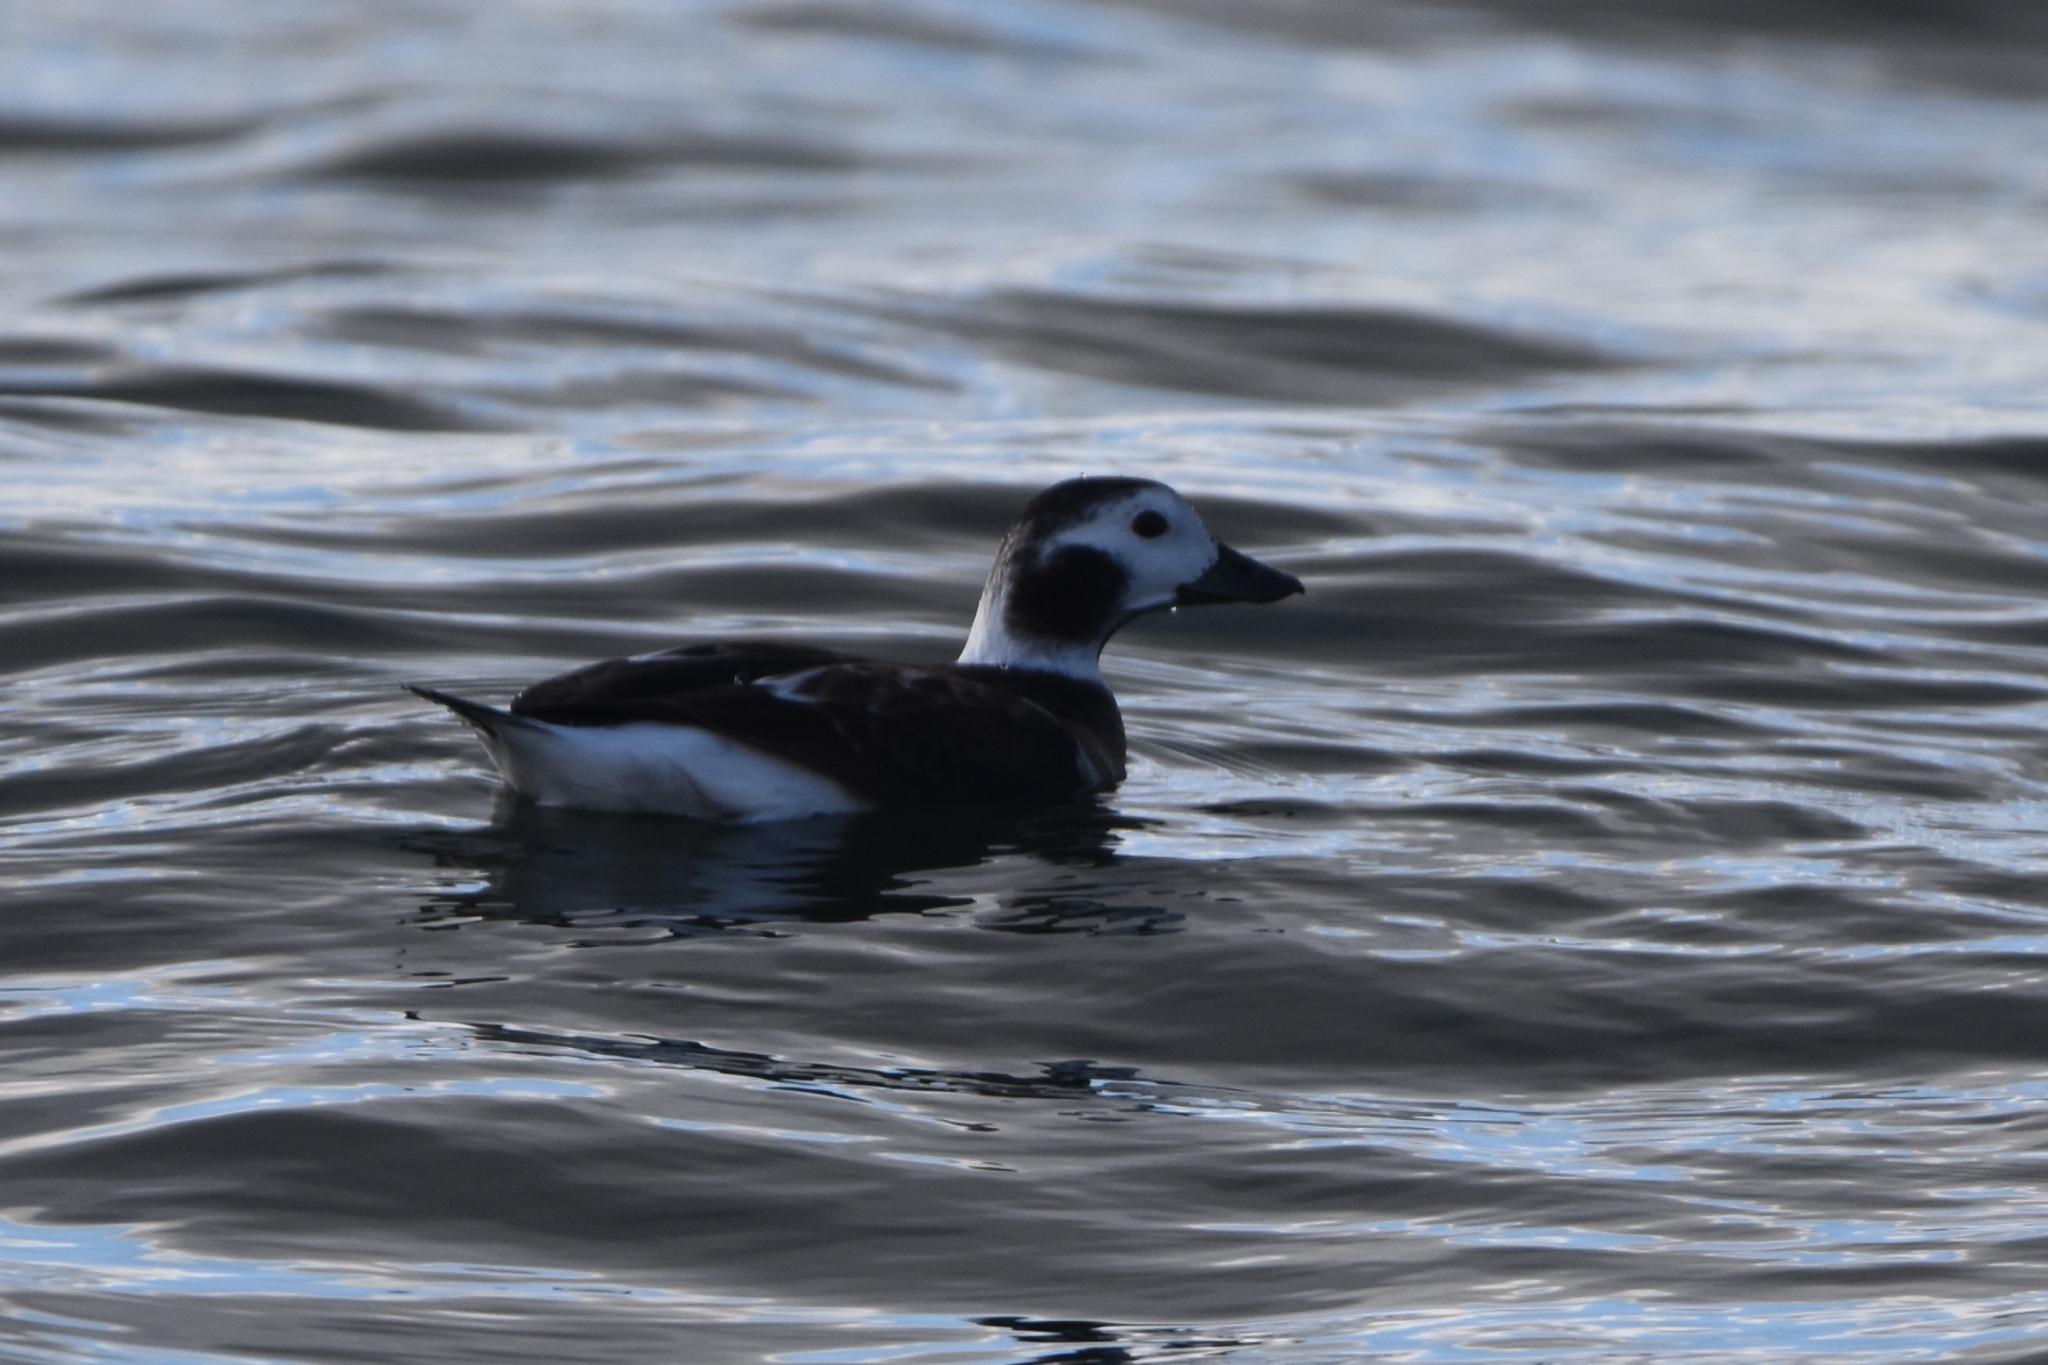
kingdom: Animalia
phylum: Chordata
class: Aves
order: Anseriformes
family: Anatidae
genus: Clangula
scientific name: Clangula hyemalis
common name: Long-tailed duck
